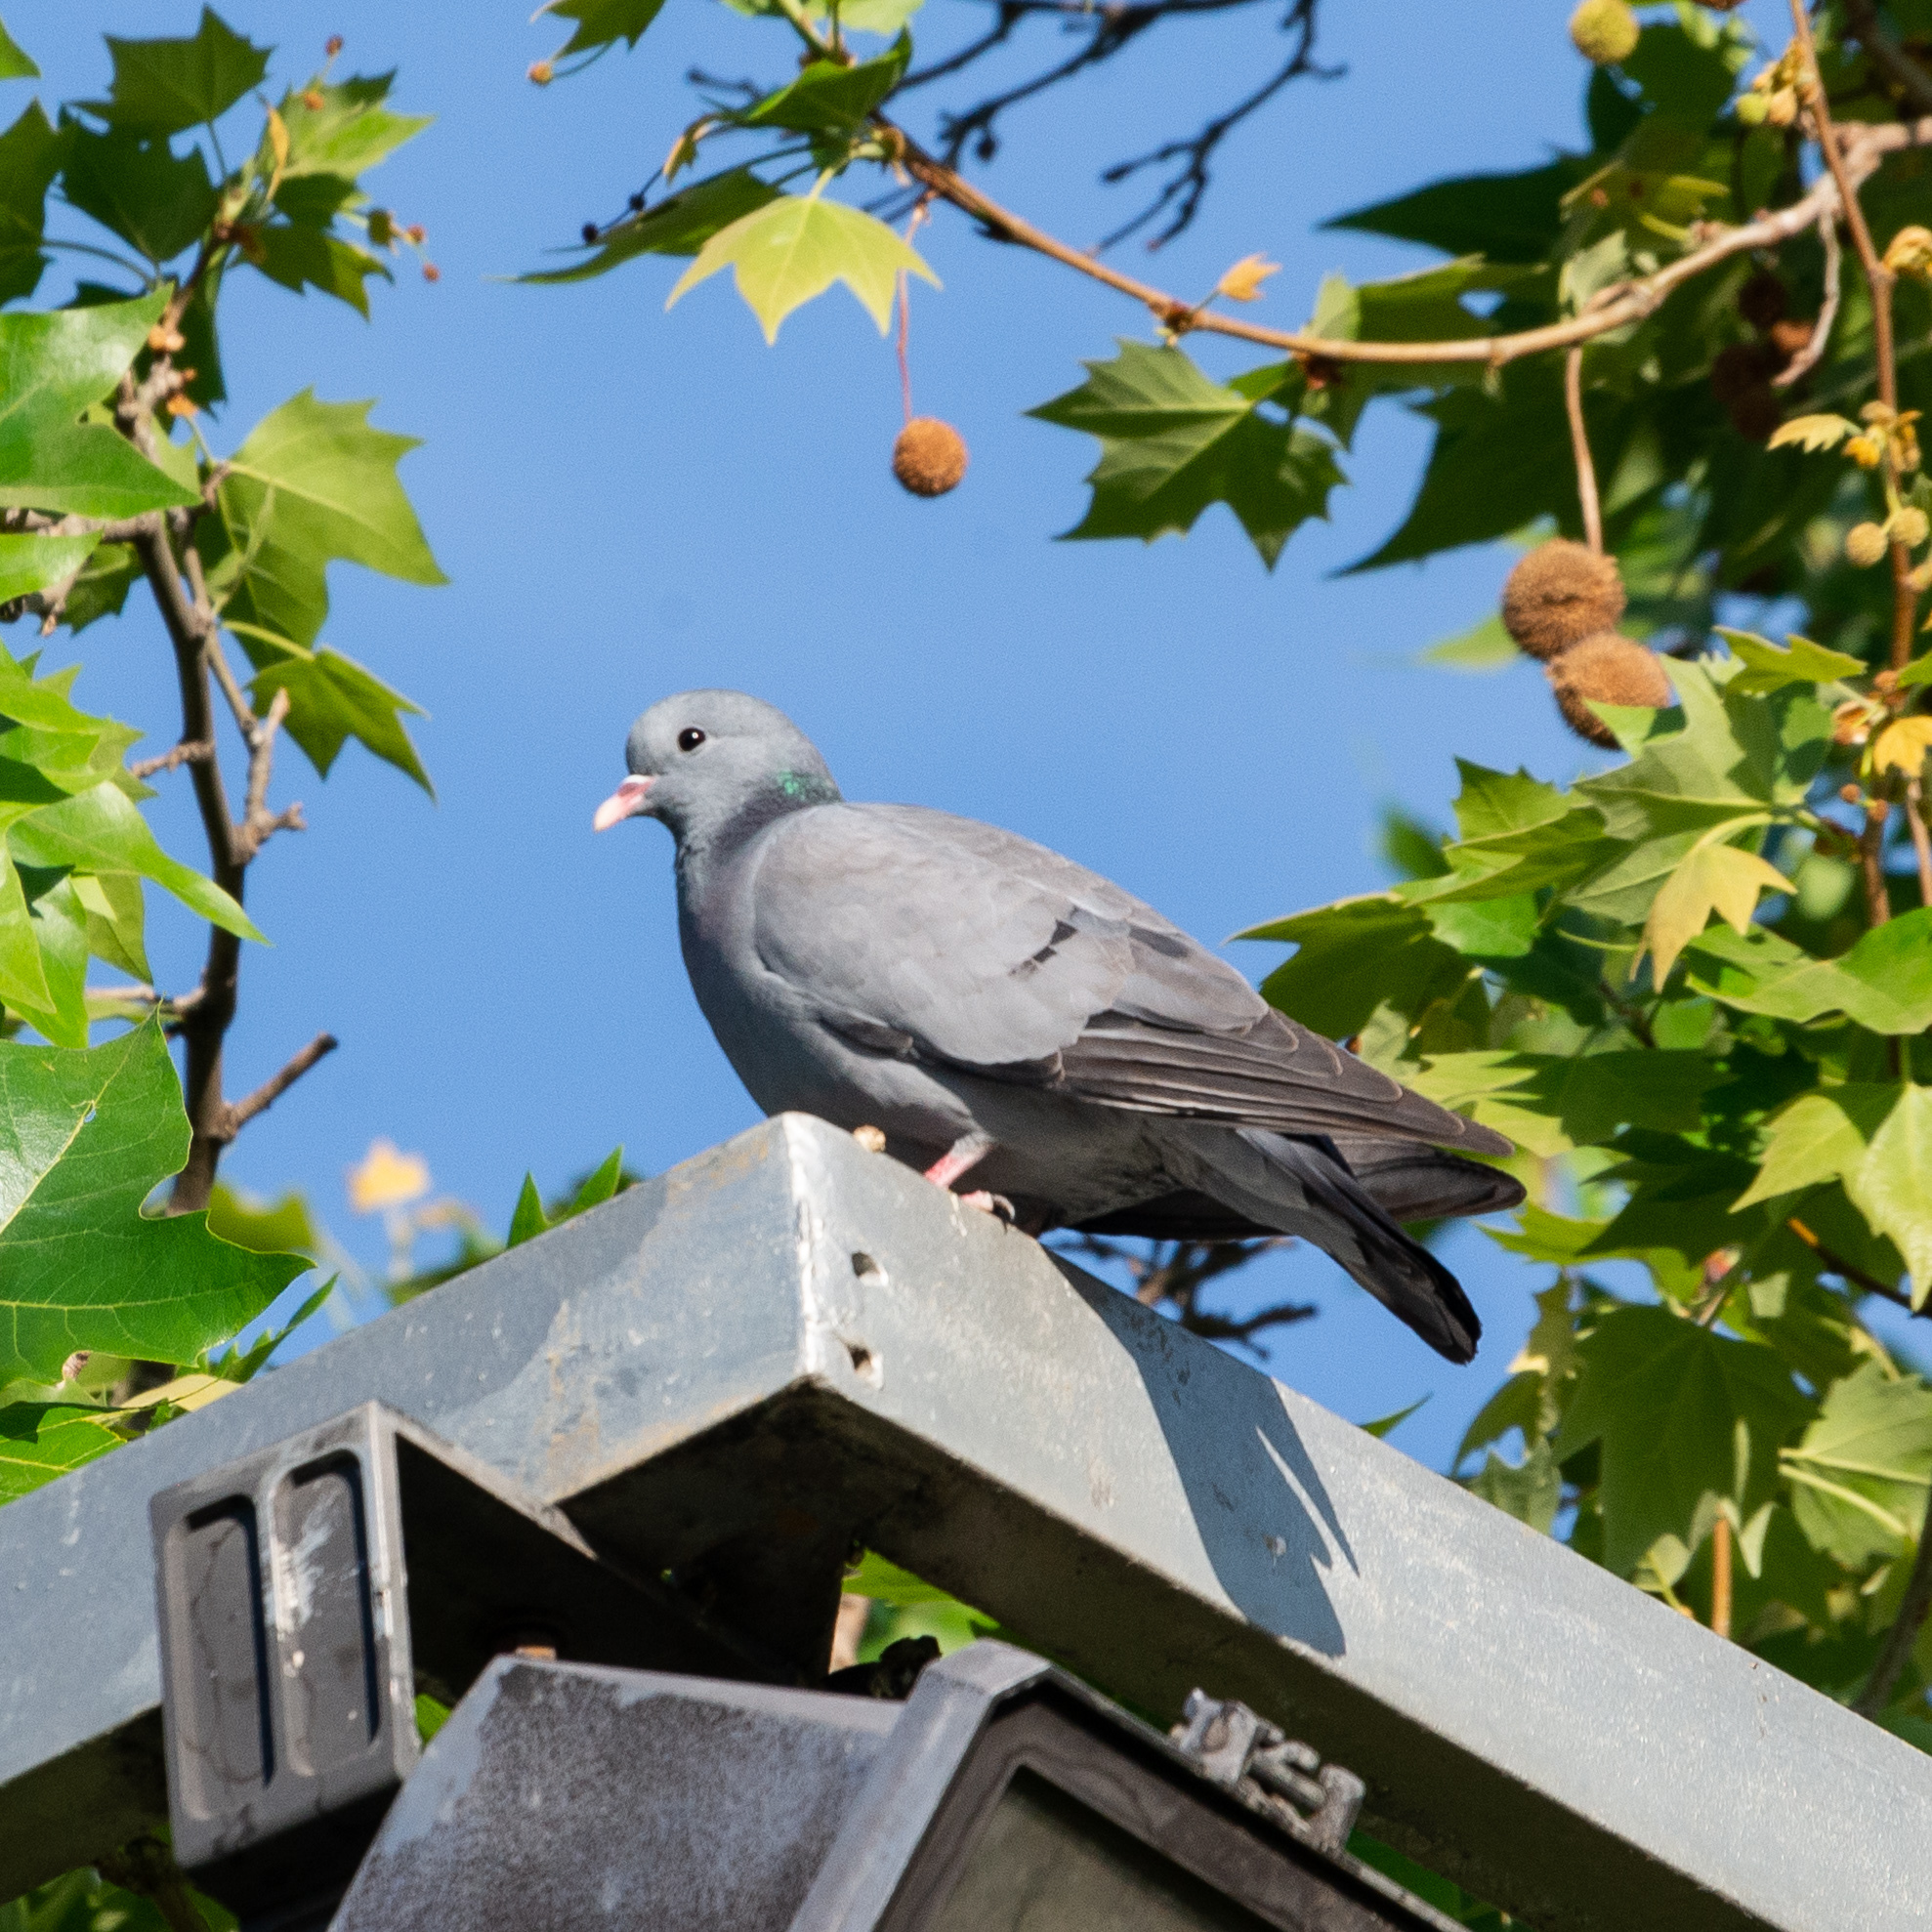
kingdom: Animalia
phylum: Chordata
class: Aves
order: Columbiformes
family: Columbidae
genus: Columba
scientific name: Columba oenas
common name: Stock dove
